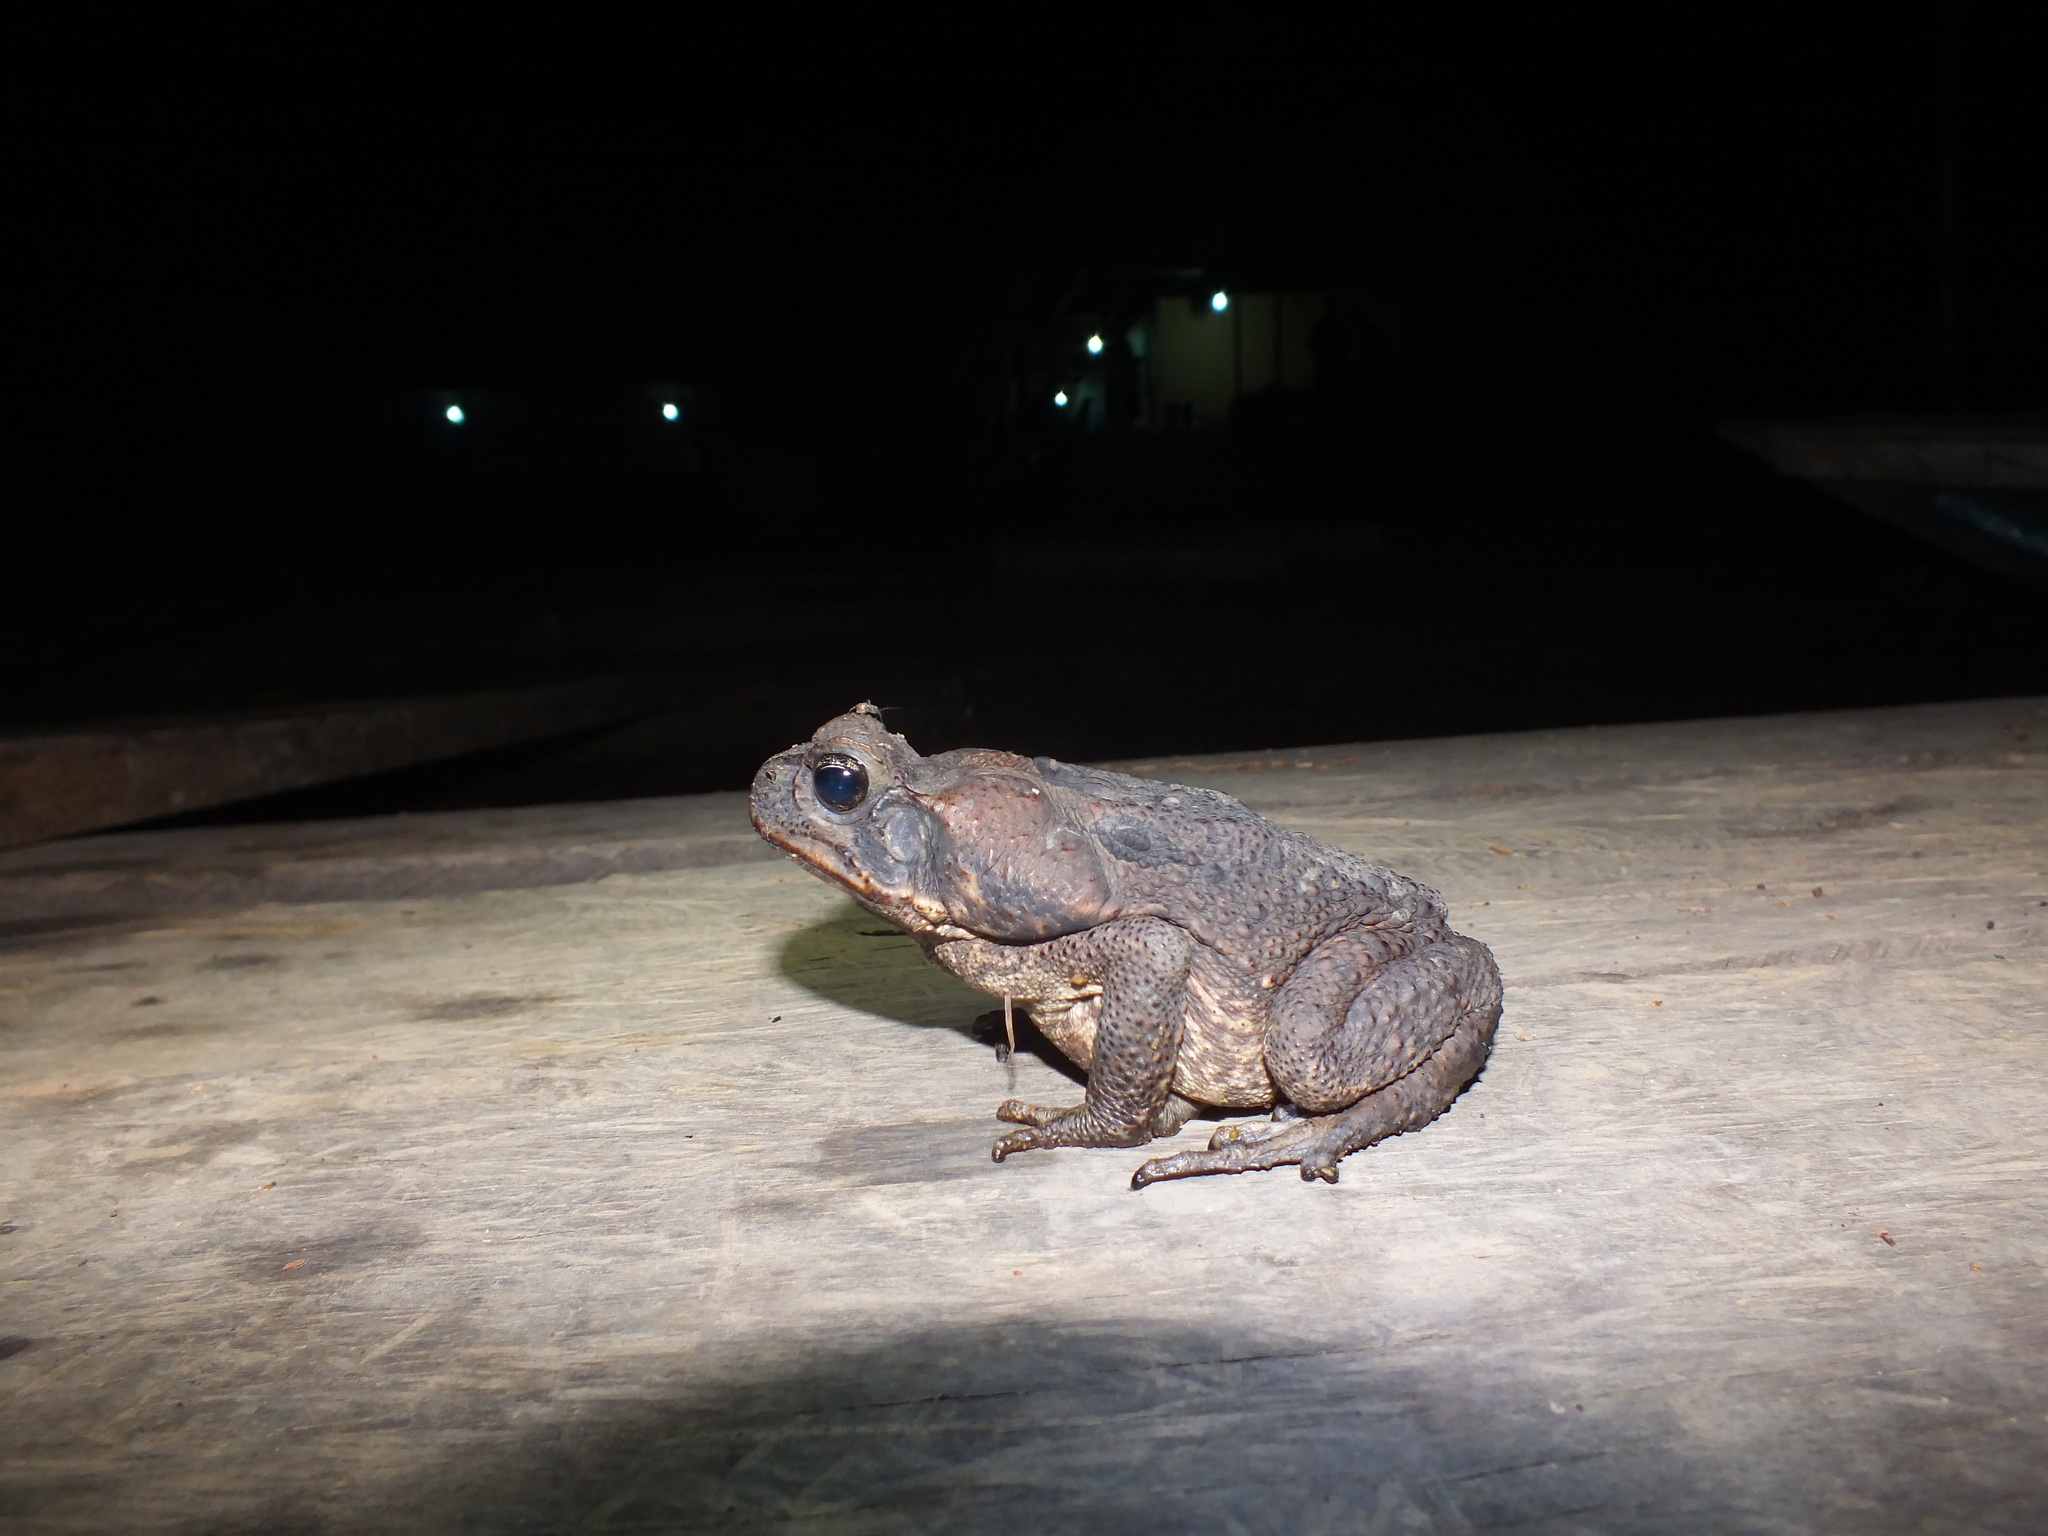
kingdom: Animalia
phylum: Chordata
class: Amphibia
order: Anura
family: Bufonidae
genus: Rhinella
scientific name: Rhinella marina
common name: Cane toad
